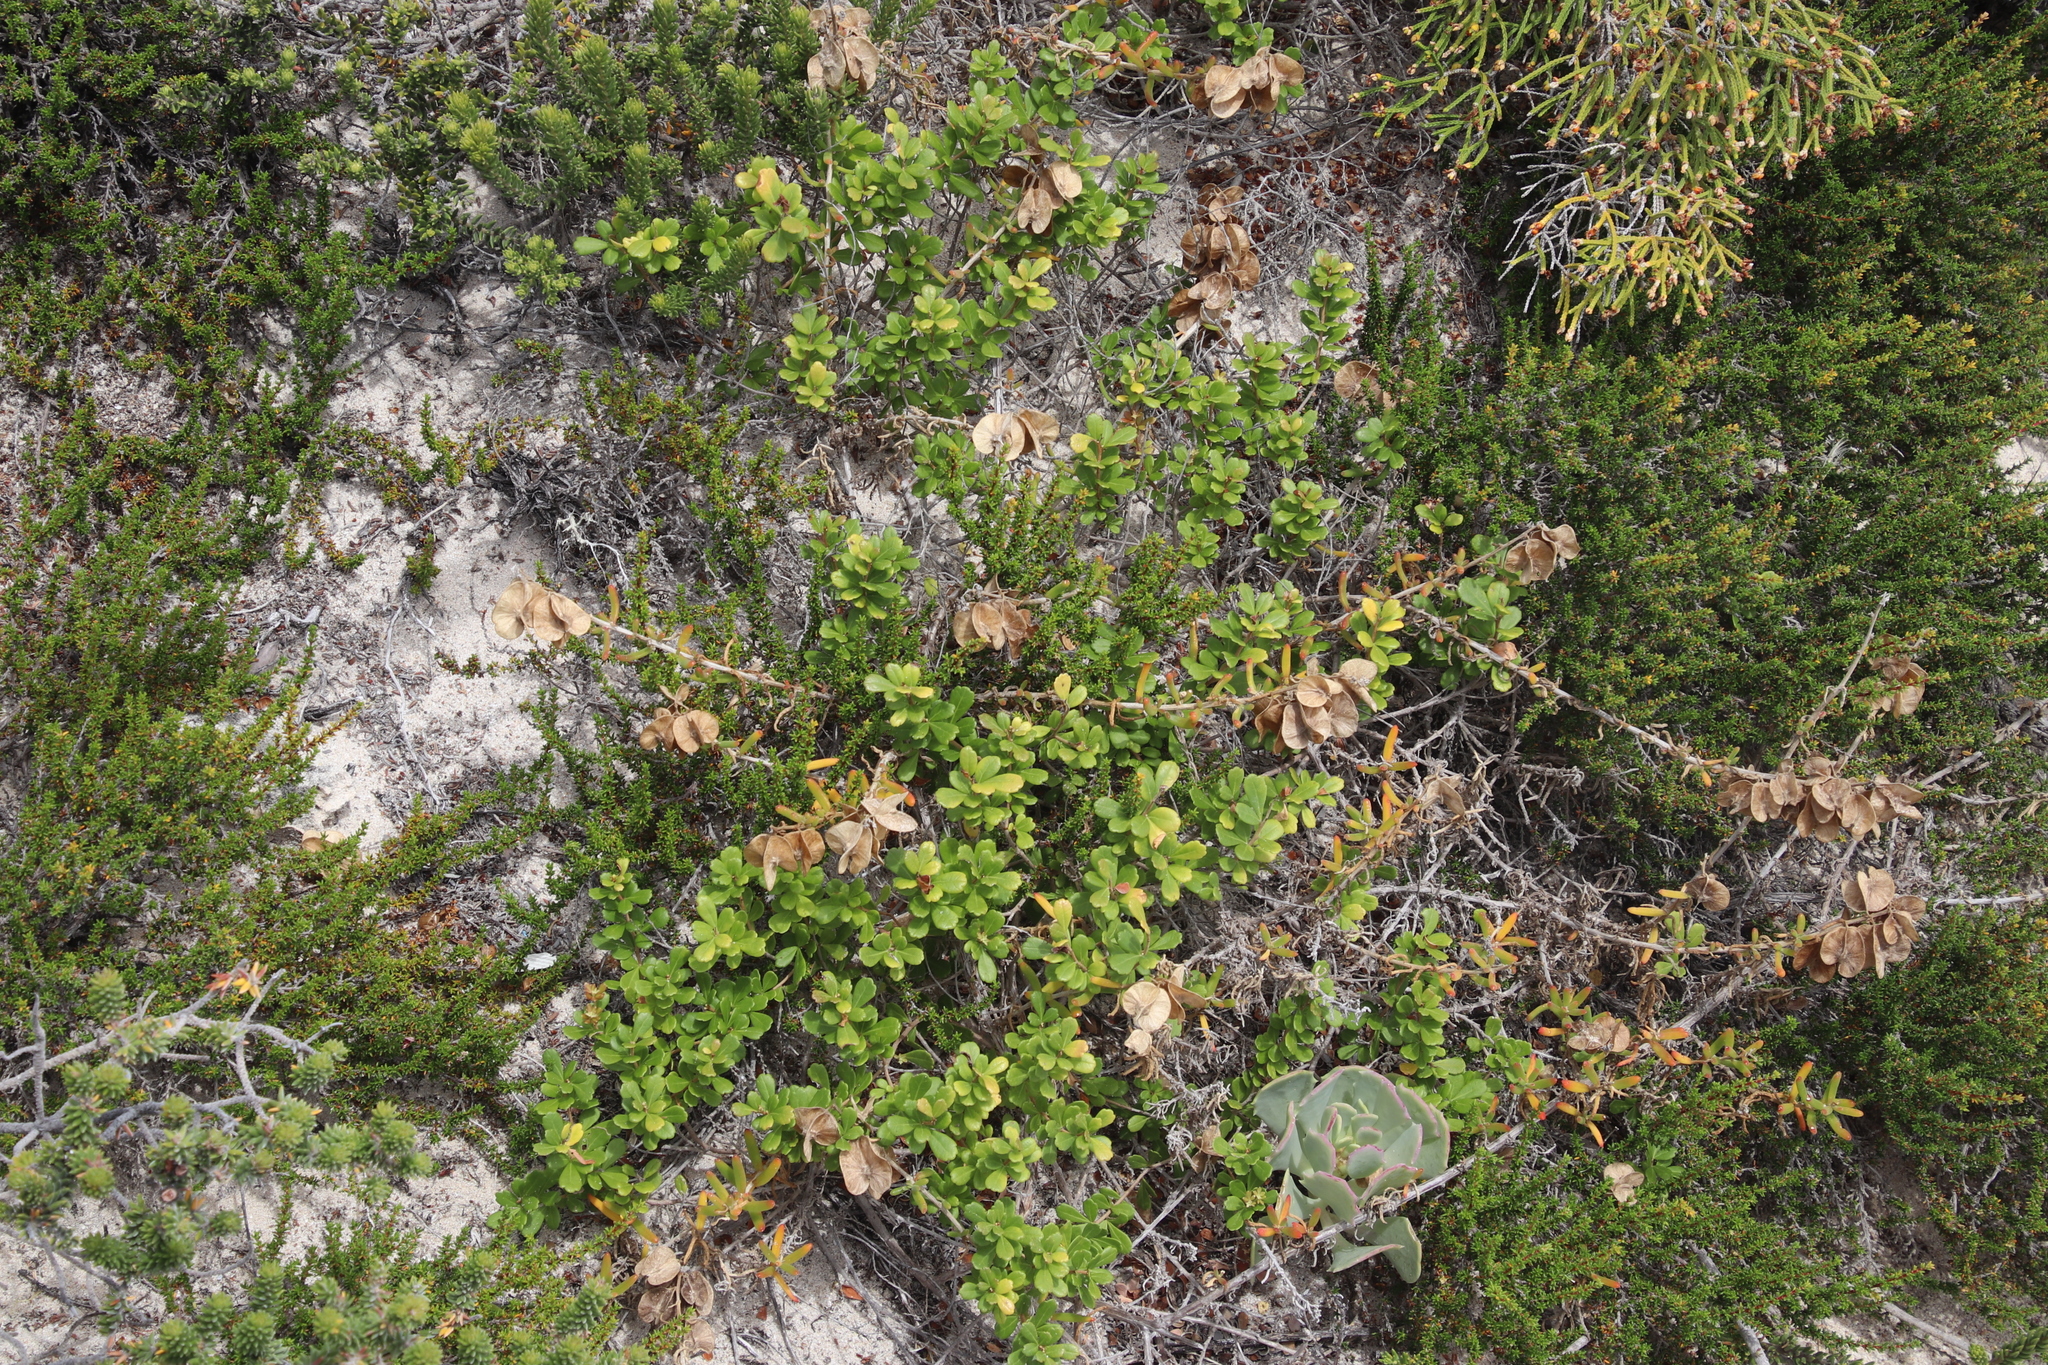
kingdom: Plantae
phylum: Tracheophyta
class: Magnoliopsida
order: Caryophyllales
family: Aizoaceae
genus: Tetragonia
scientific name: Tetragonia fruticosa
